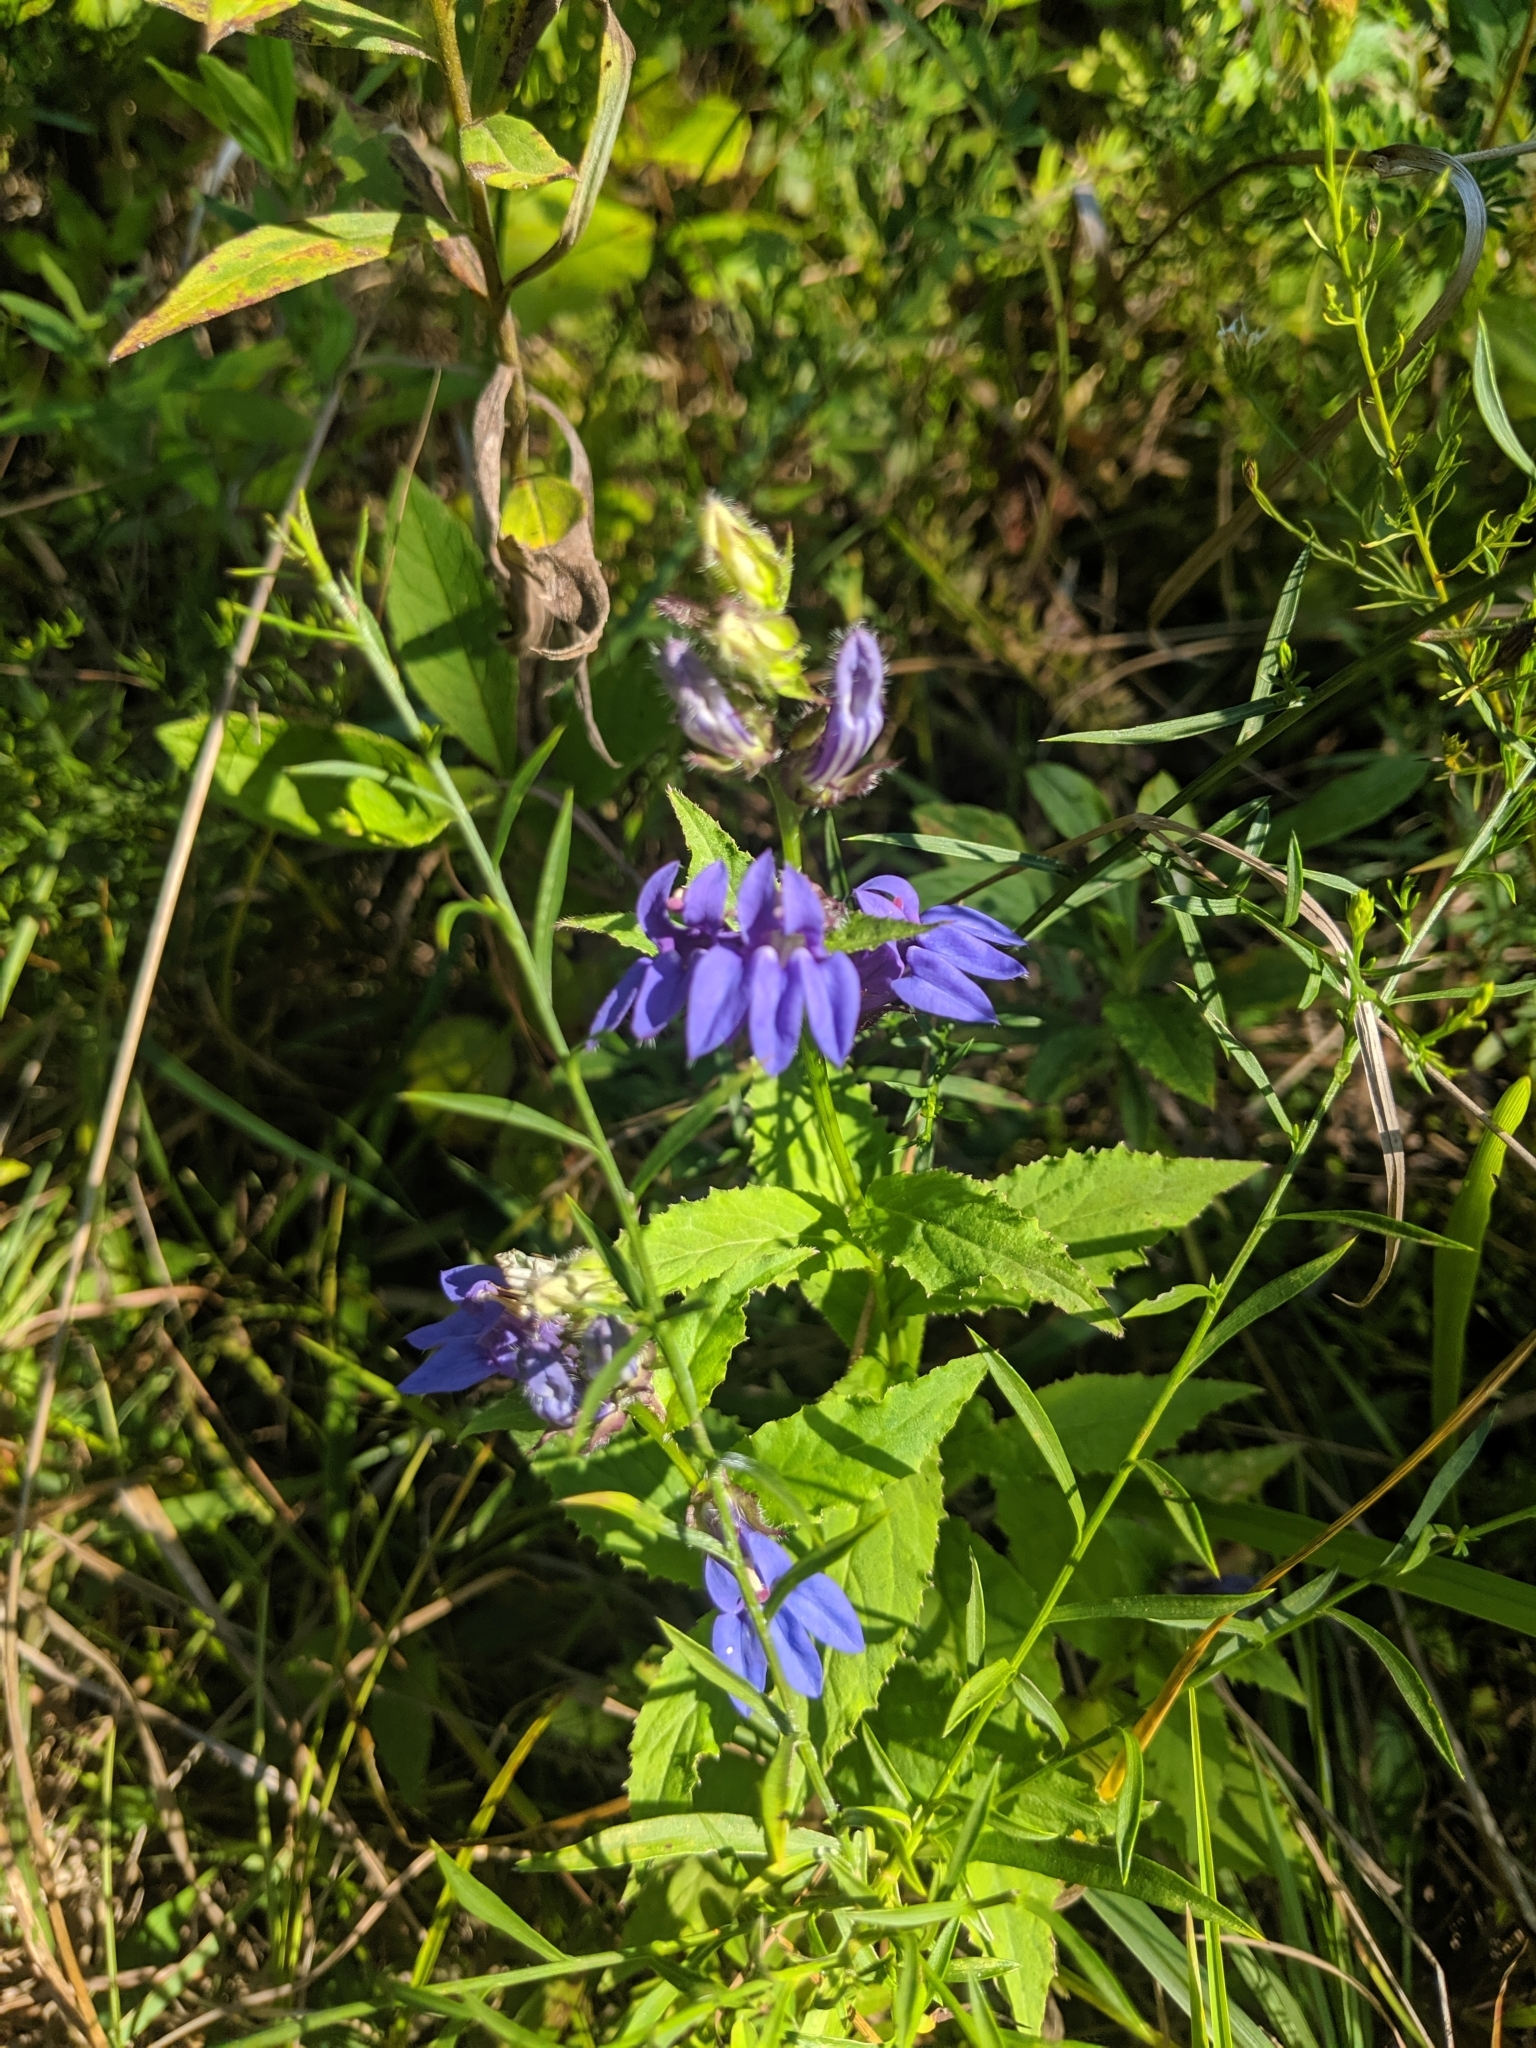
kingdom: Plantae
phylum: Tracheophyta
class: Magnoliopsida
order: Asterales
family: Campanulaceae
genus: Lobelia
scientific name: Lobelia siphilitica
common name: Great lobelia
